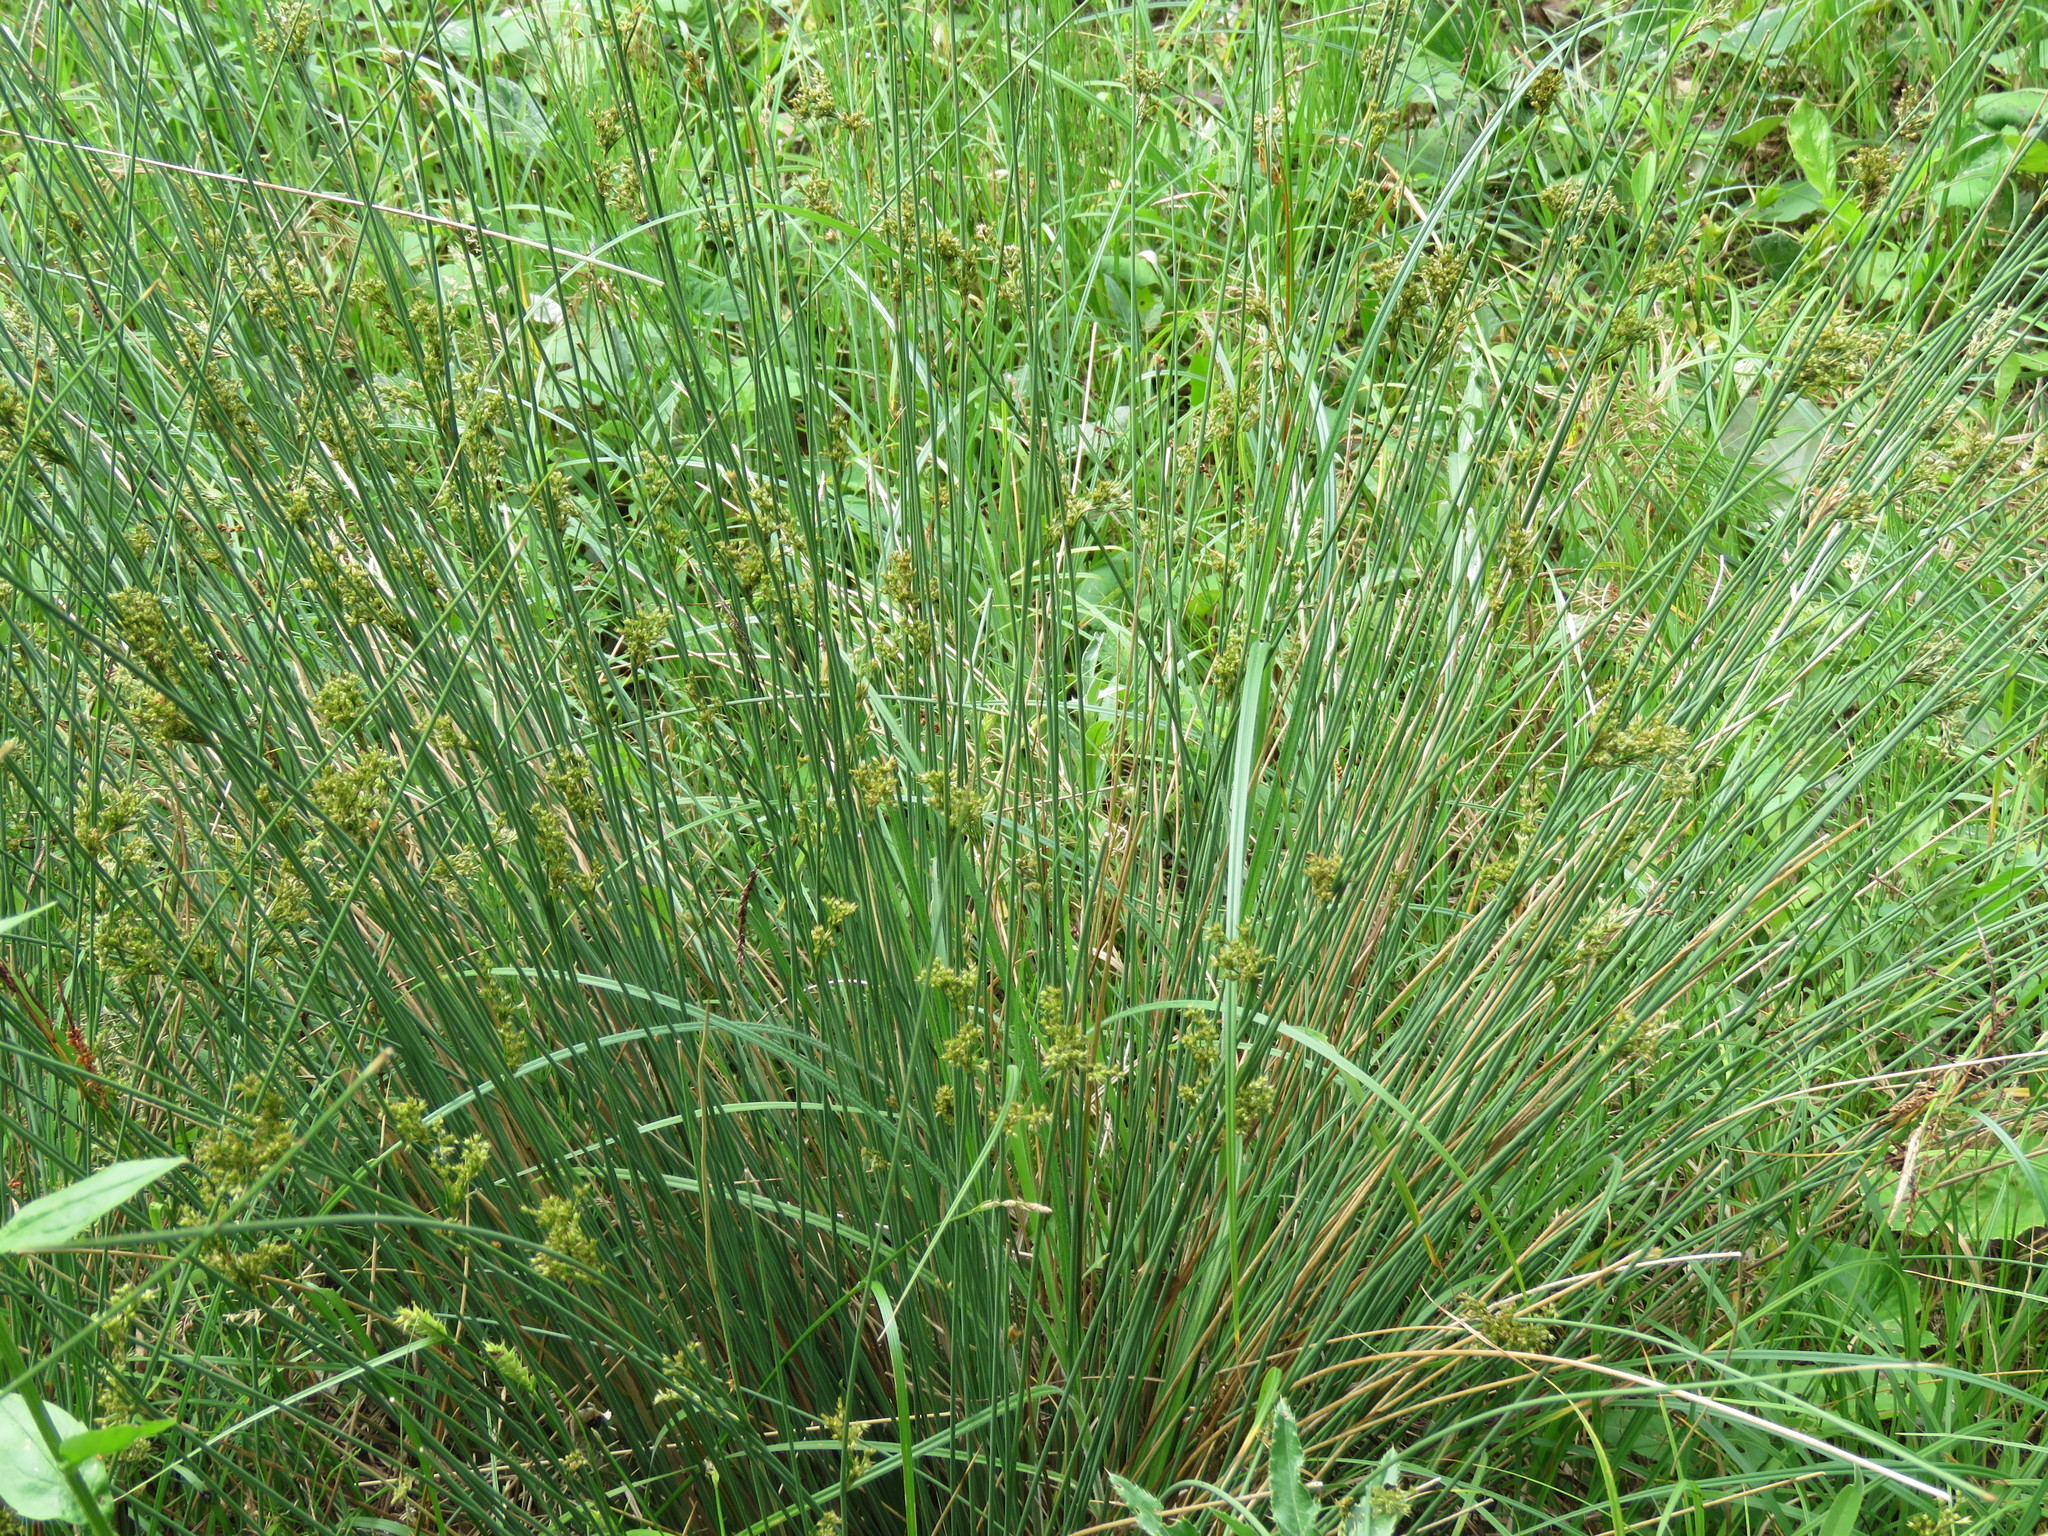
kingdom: Plantae
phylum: Tracheophyta
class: Liliopsida
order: Poales
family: Juncaceae
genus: Juncus
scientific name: Juncus inflexus
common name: Hard rush
